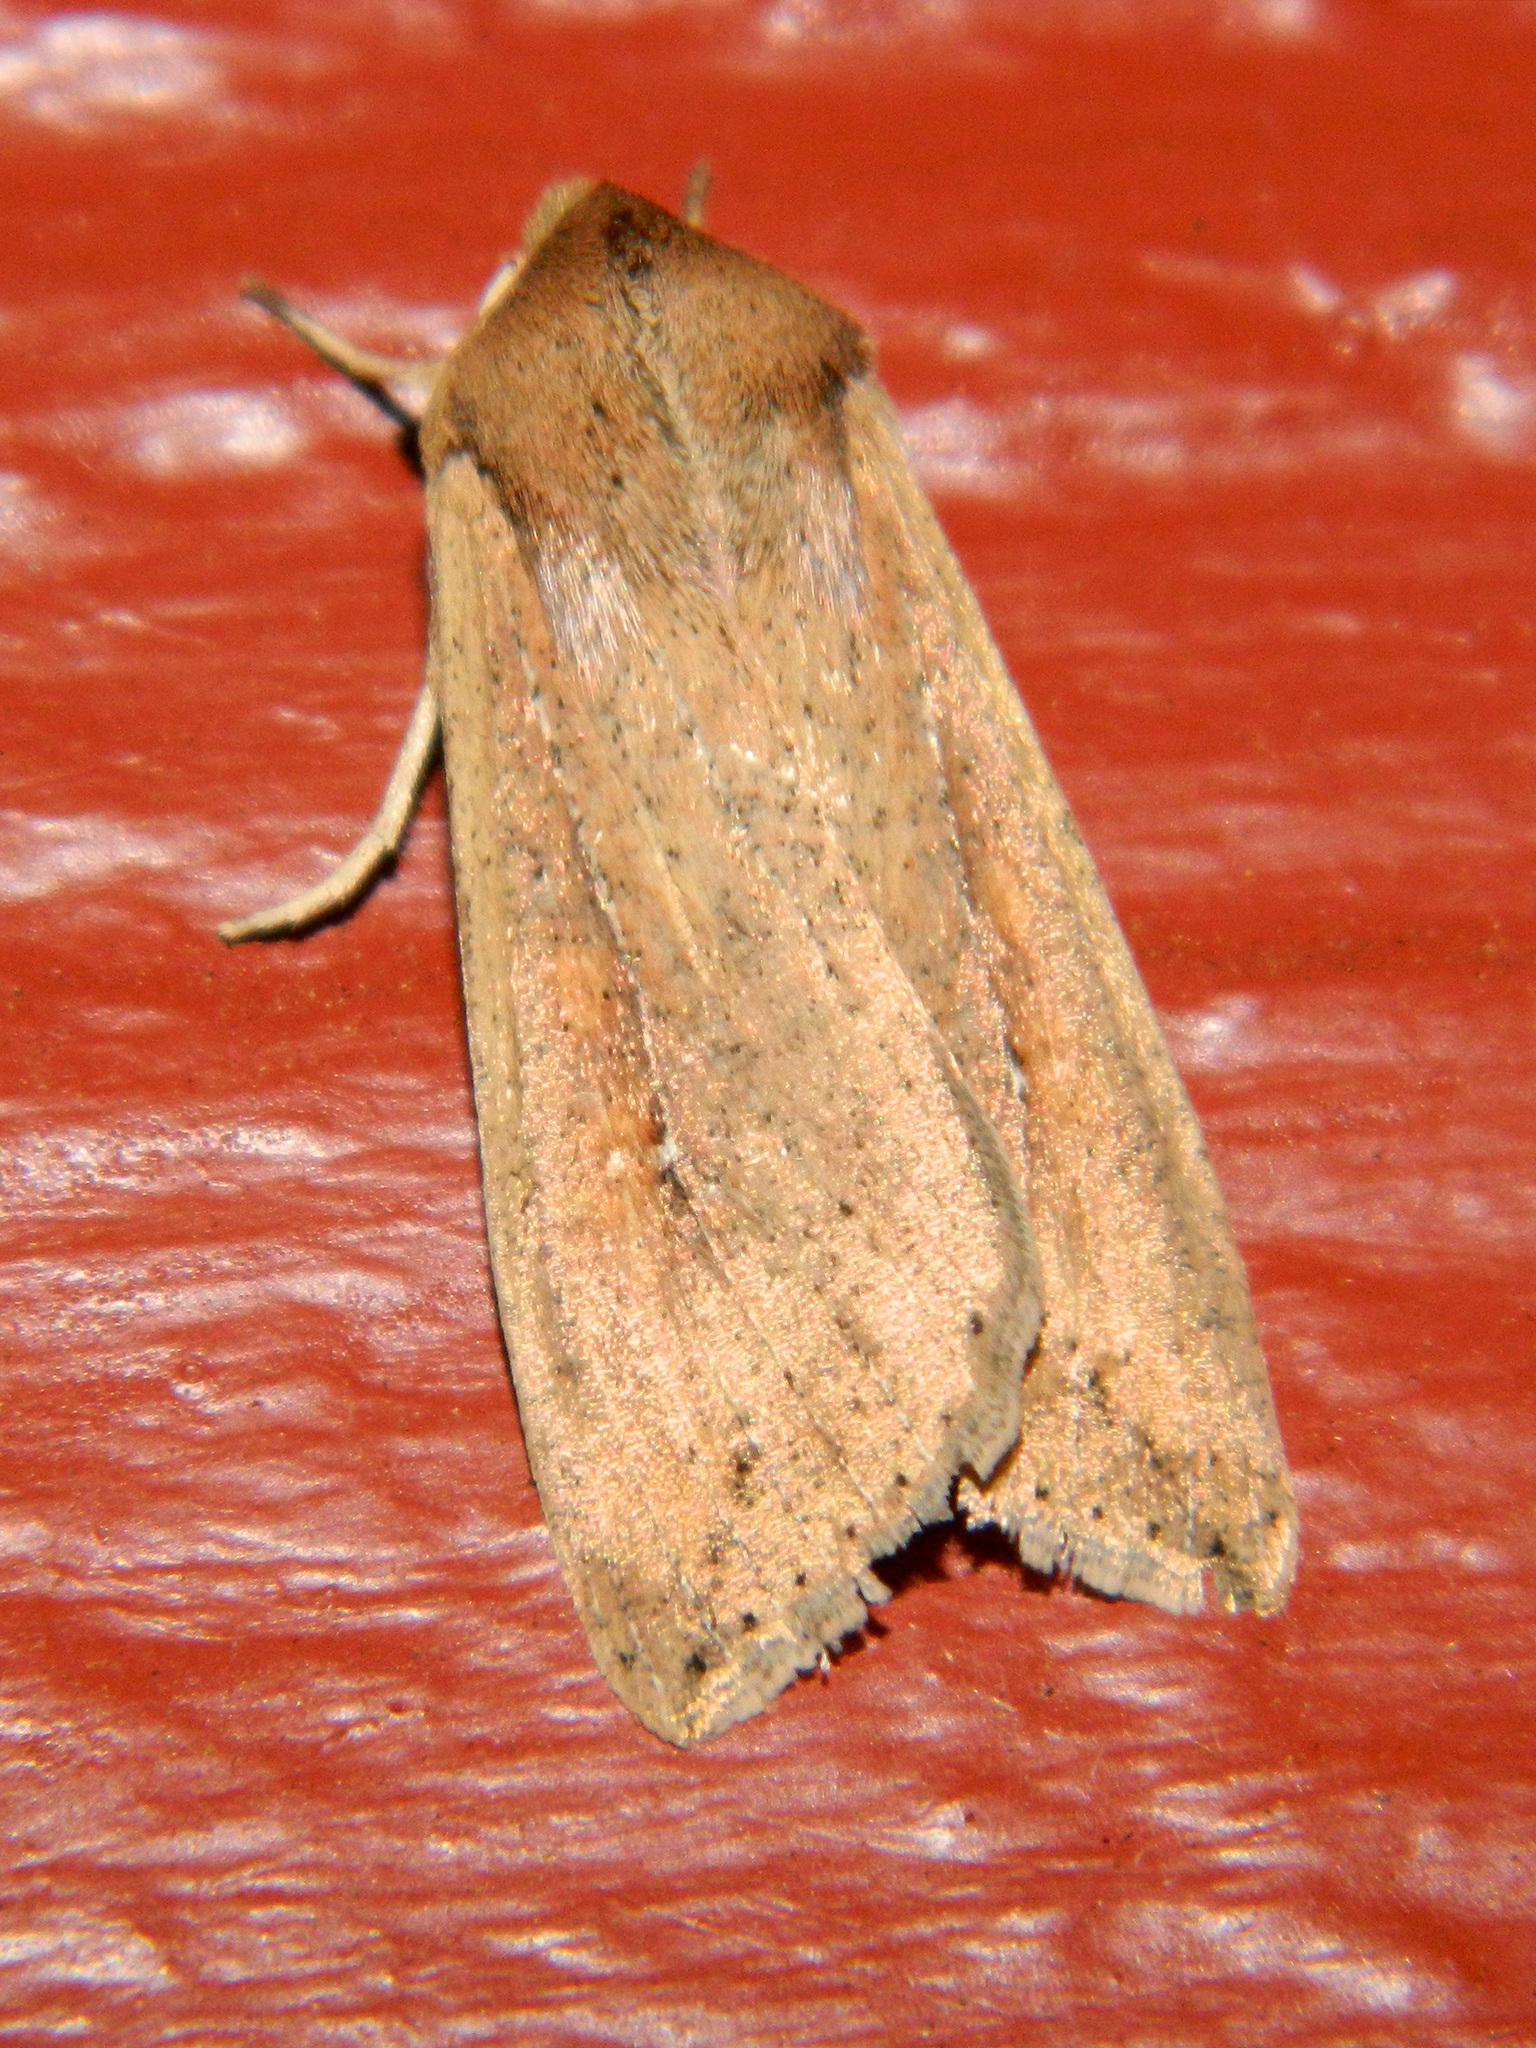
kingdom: Animalia
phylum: Arthropoda
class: Insecta
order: Lepidoptera
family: Noctuidae
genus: Mythimna
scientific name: Mythimna unipuncta
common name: White-speck
